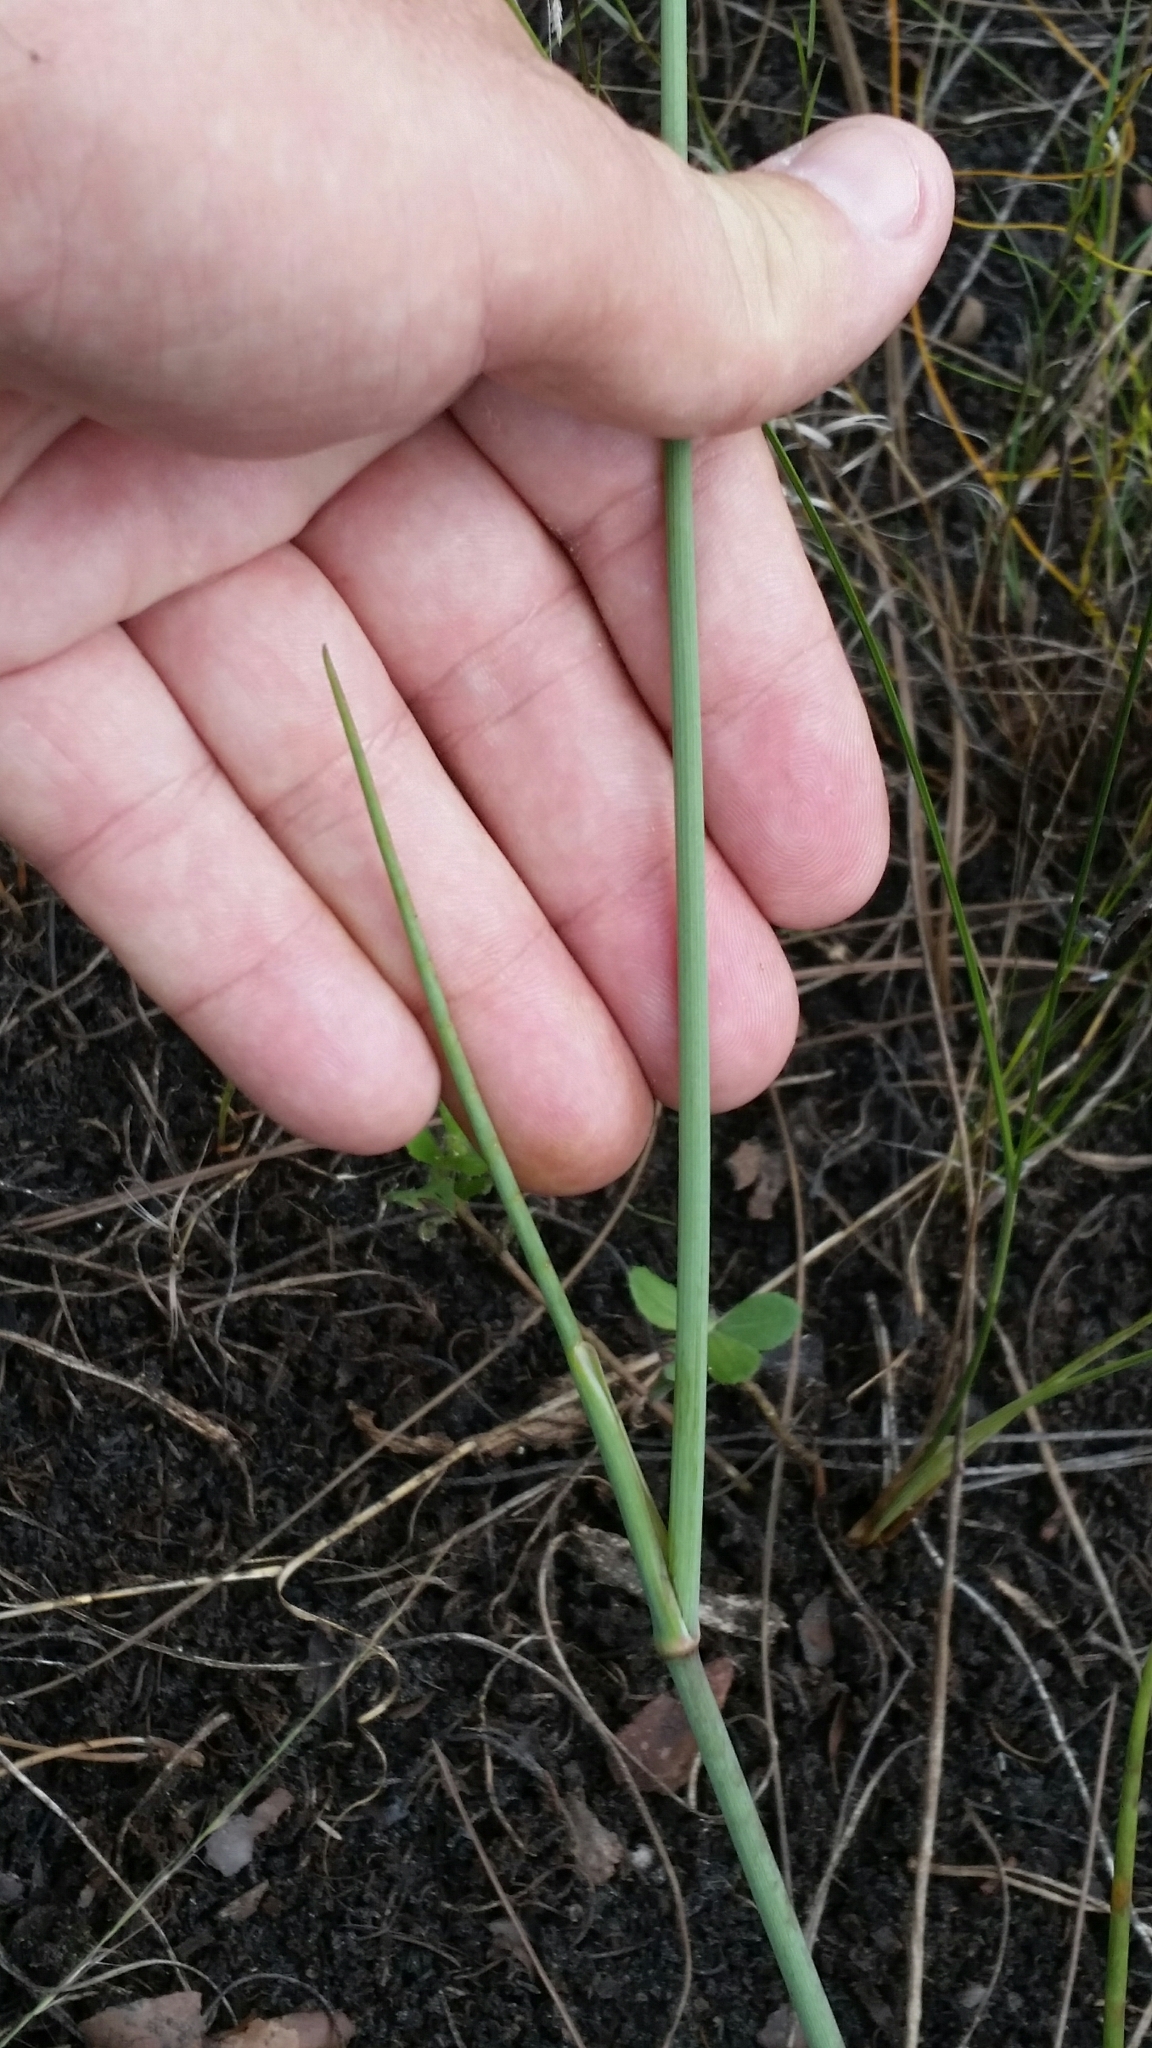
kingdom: Plantae
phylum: Tracheophyta
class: Magnoliopsida
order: Apiales
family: Apiaceae
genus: Tiedemannia
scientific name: Tiedemannia filiformis
